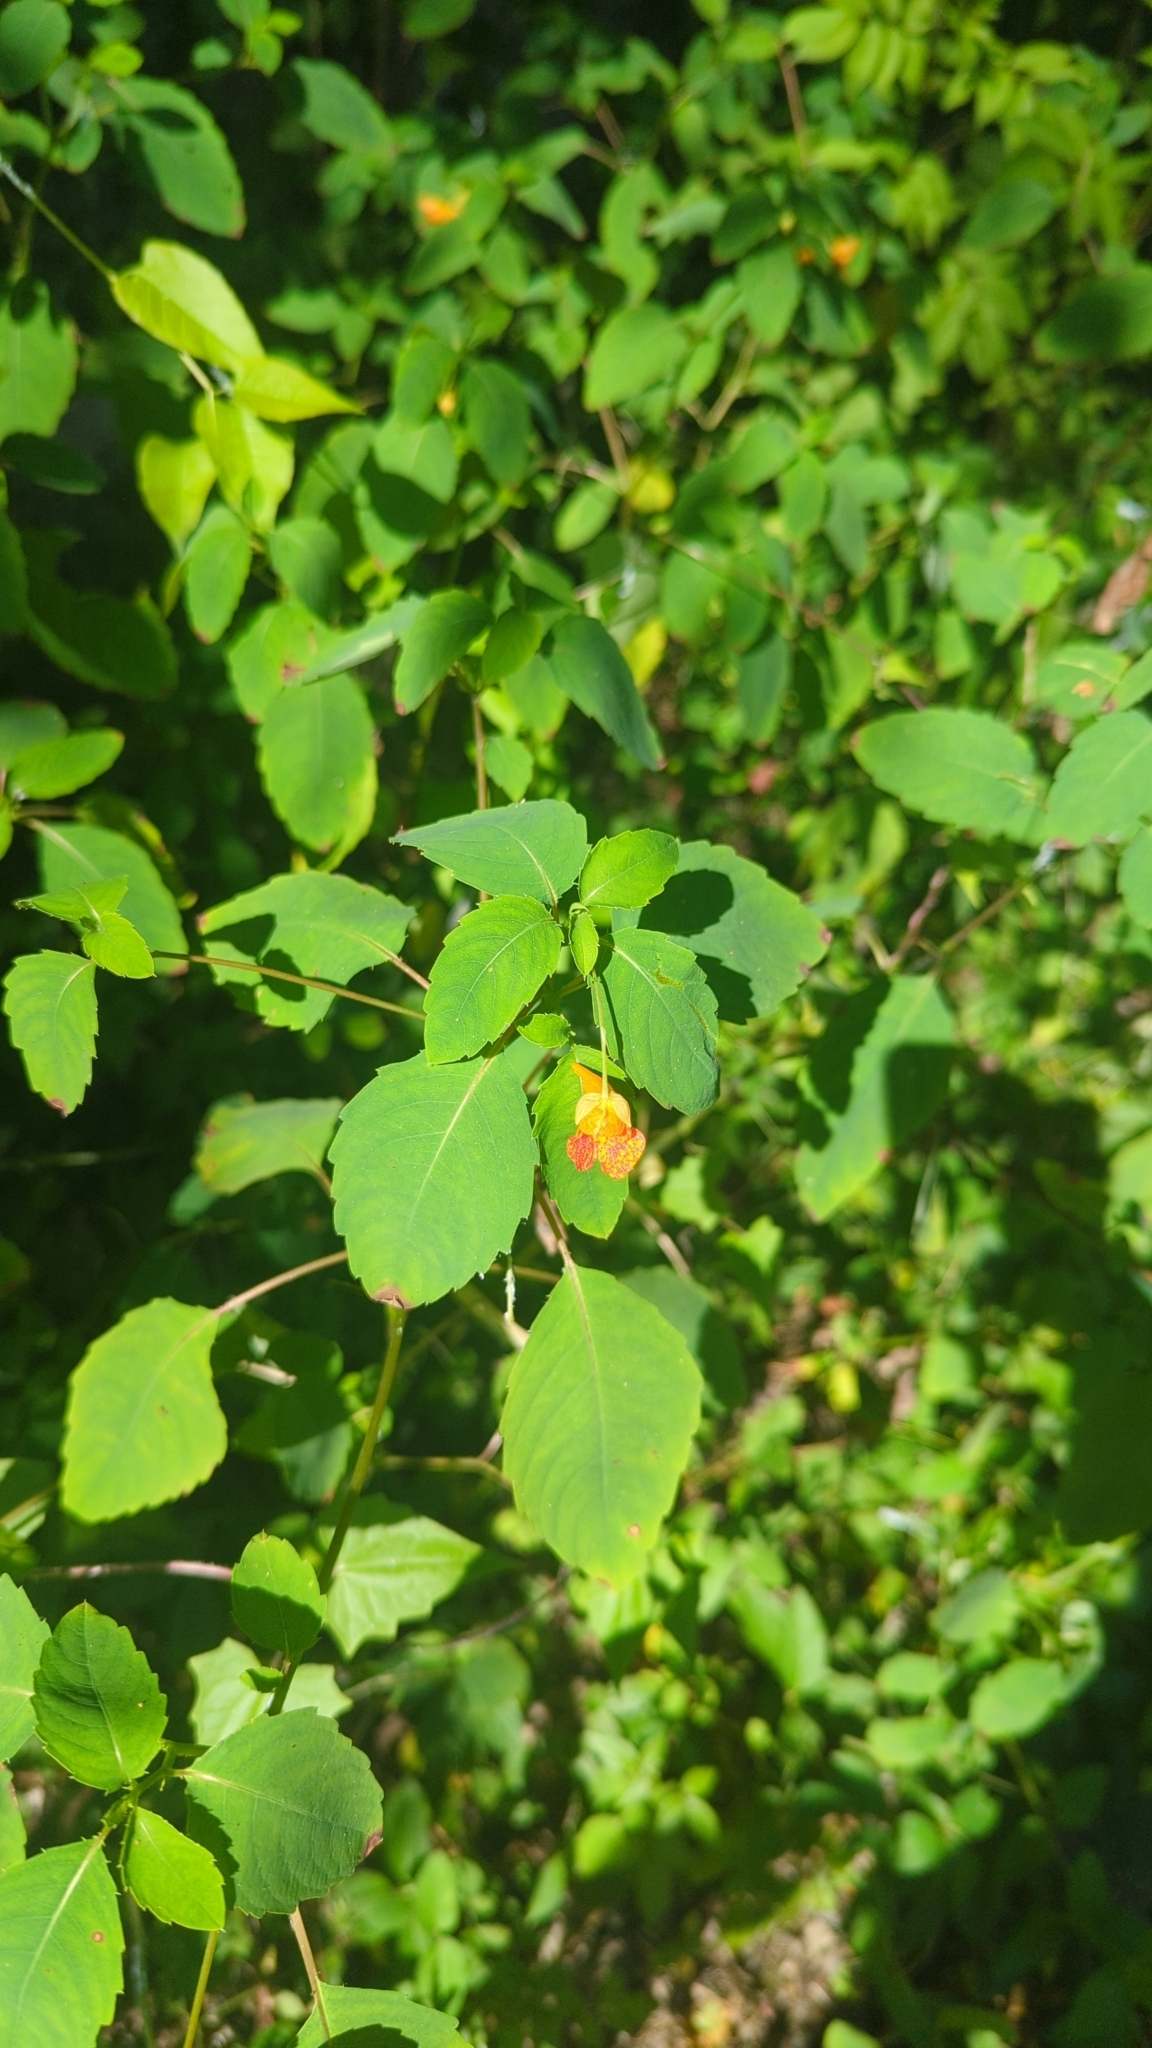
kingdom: Plantae
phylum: Tracheophyta
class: Magnoliopsida
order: Ericales
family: Balsaminaceae
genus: Impatiens
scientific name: Impatiens capensis
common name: Orange balsam
